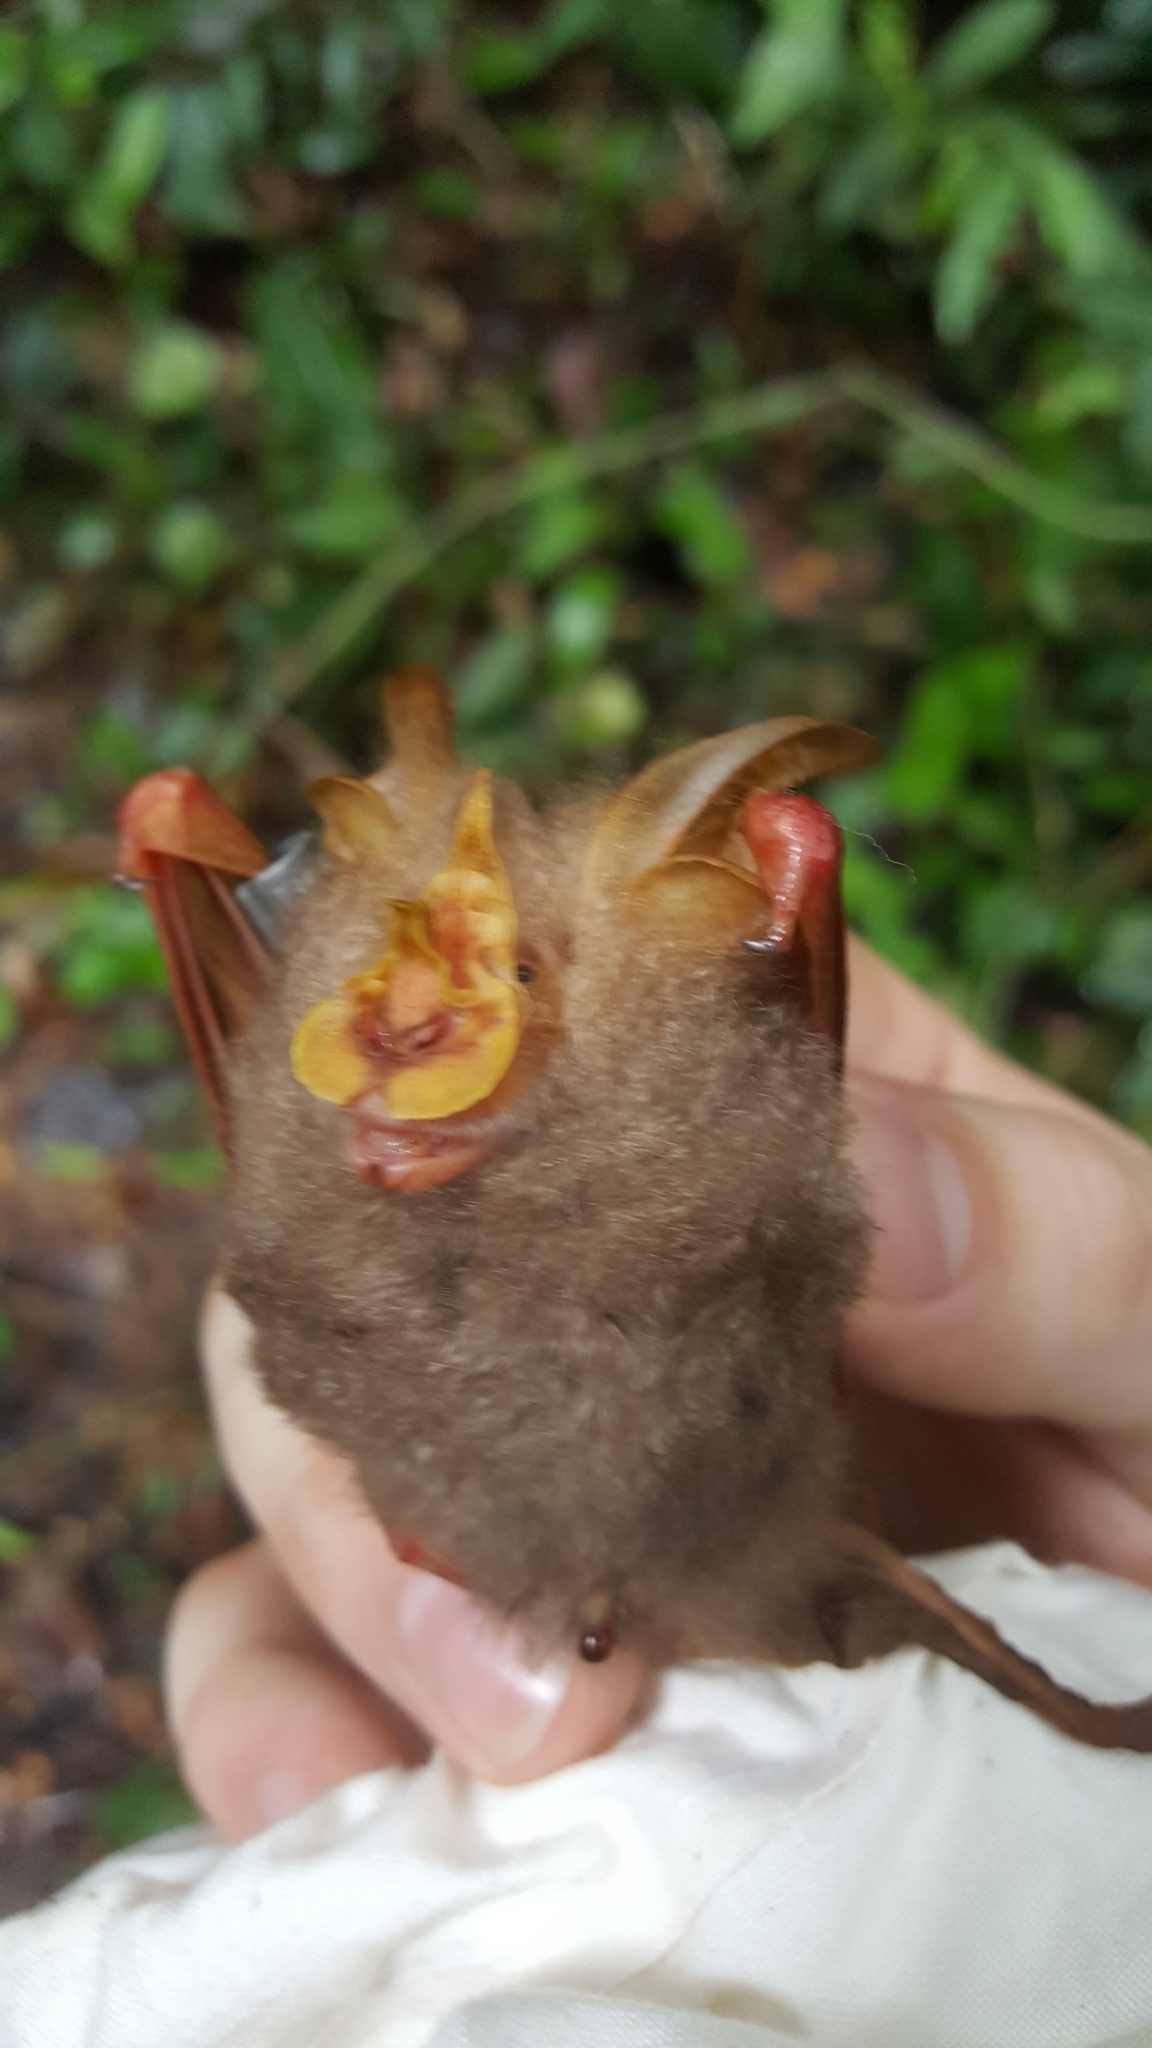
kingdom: Animalia
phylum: Chordata
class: Mammalia
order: Chiroptera
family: Rhinolophidae
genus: Rhinolophus
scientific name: Rhinolophus trifoliatus
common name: Trefoil horseshoe bat
